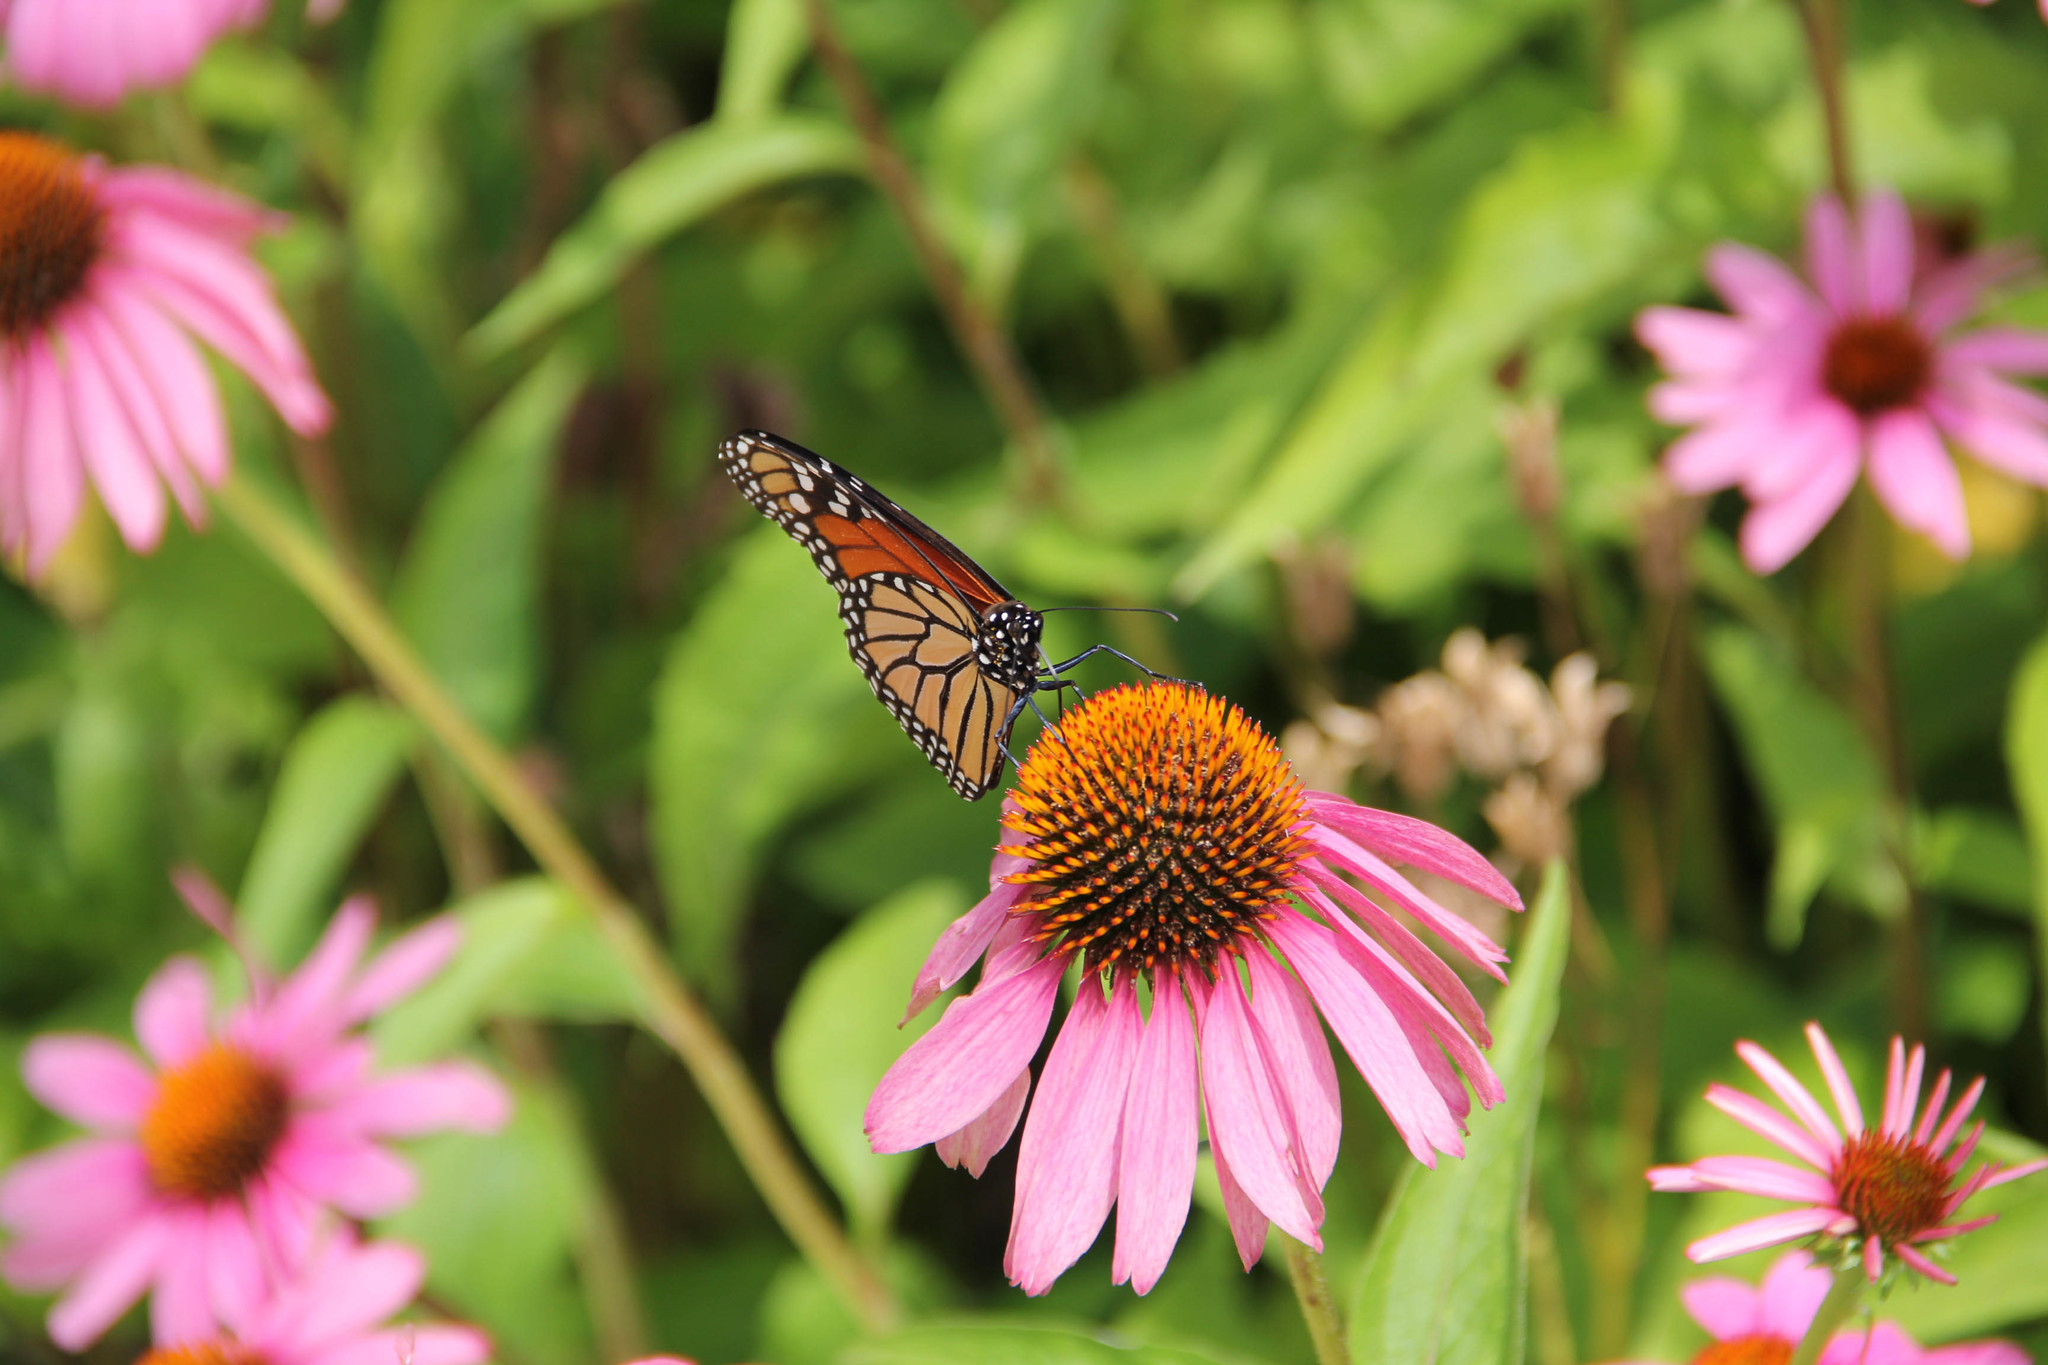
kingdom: Animalia
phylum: Arthropoda
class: Insecta
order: Lepidoptera
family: Nymphalidae
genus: Danaus
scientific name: Danaus plexippus
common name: Monarch
